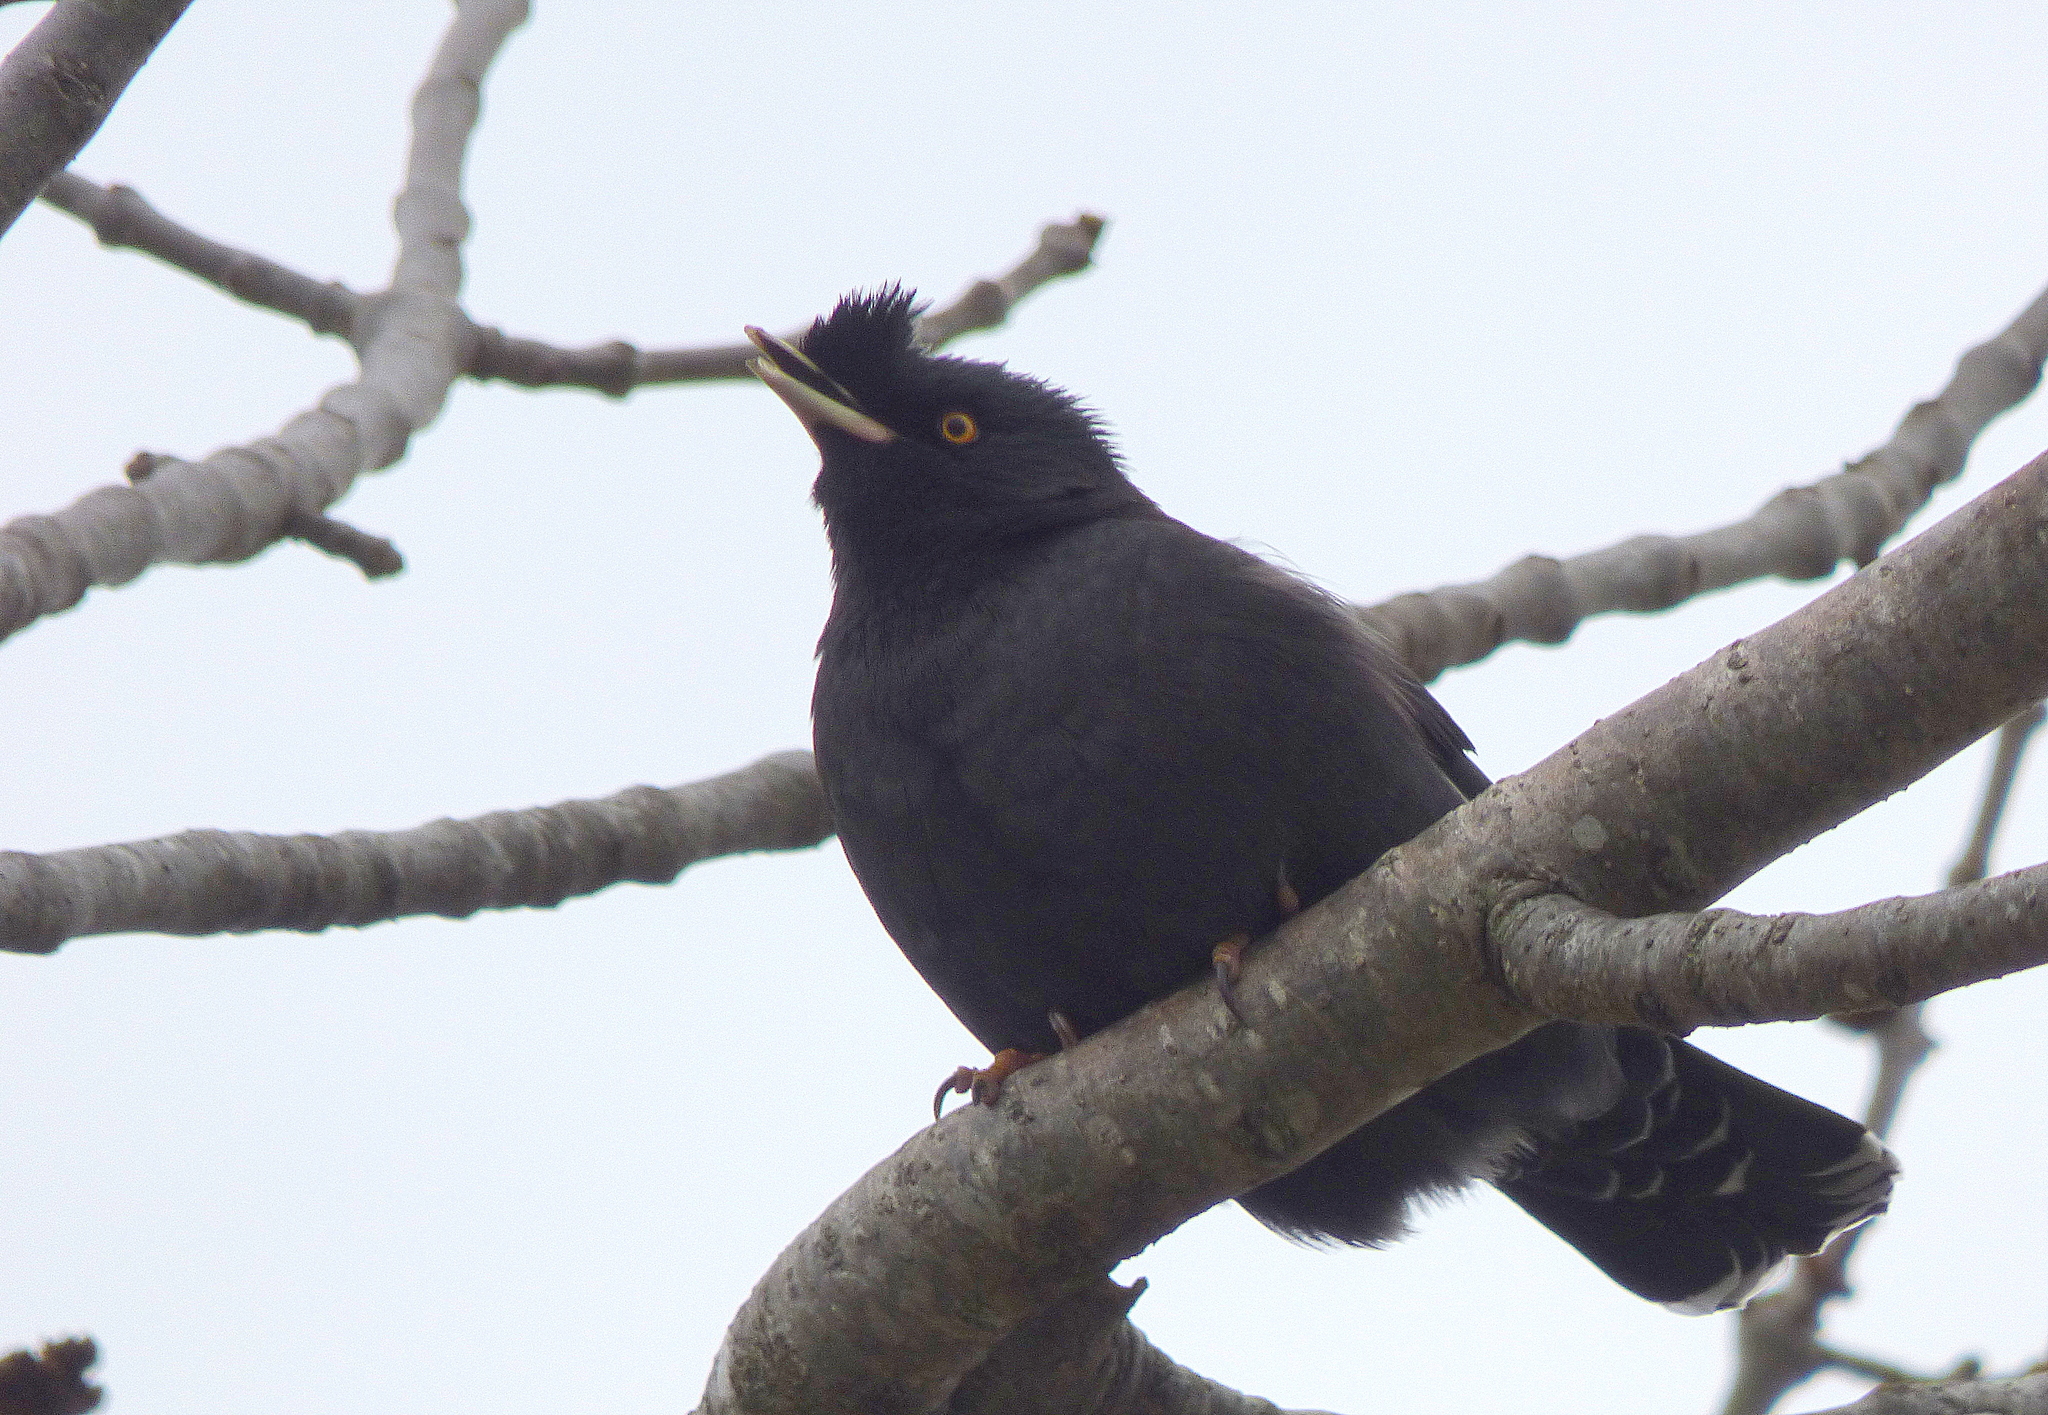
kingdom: Animalia
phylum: Chordata
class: Aves
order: Passeriformes
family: Sturnidae
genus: Acridotheres
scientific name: Acridotheres cristatellus
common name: Crested myna
